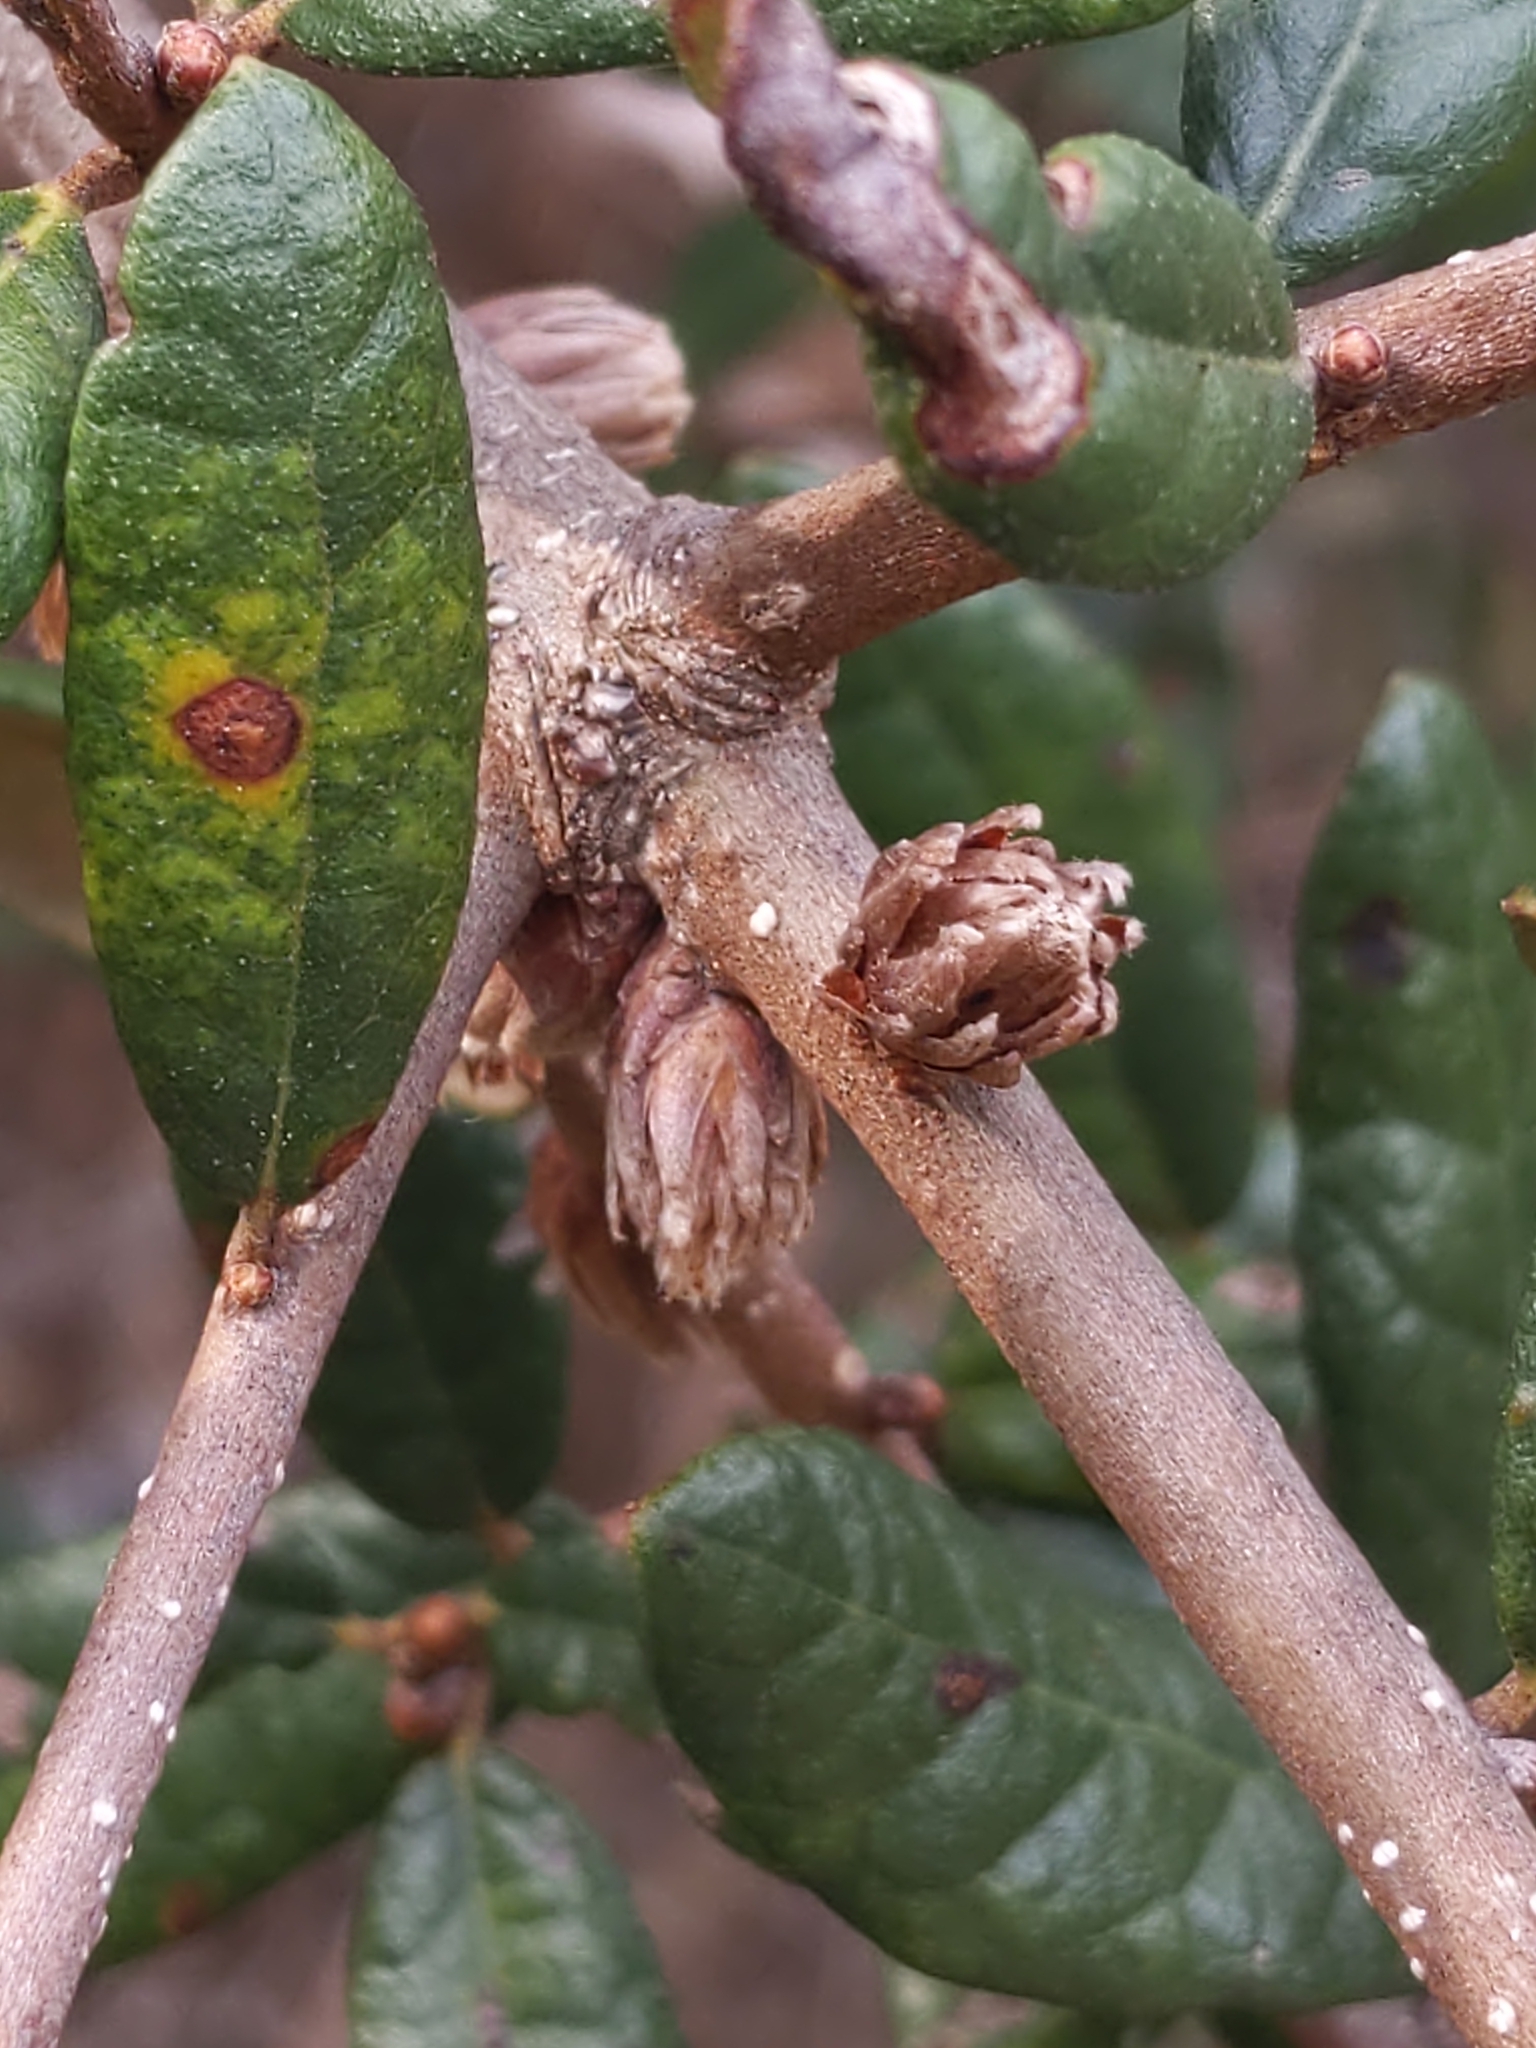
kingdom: Animalia
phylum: Arthropoda
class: Insecta
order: Hymenoptera
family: Cynipidae
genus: Andricus
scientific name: Andricus quercusfoliatus
